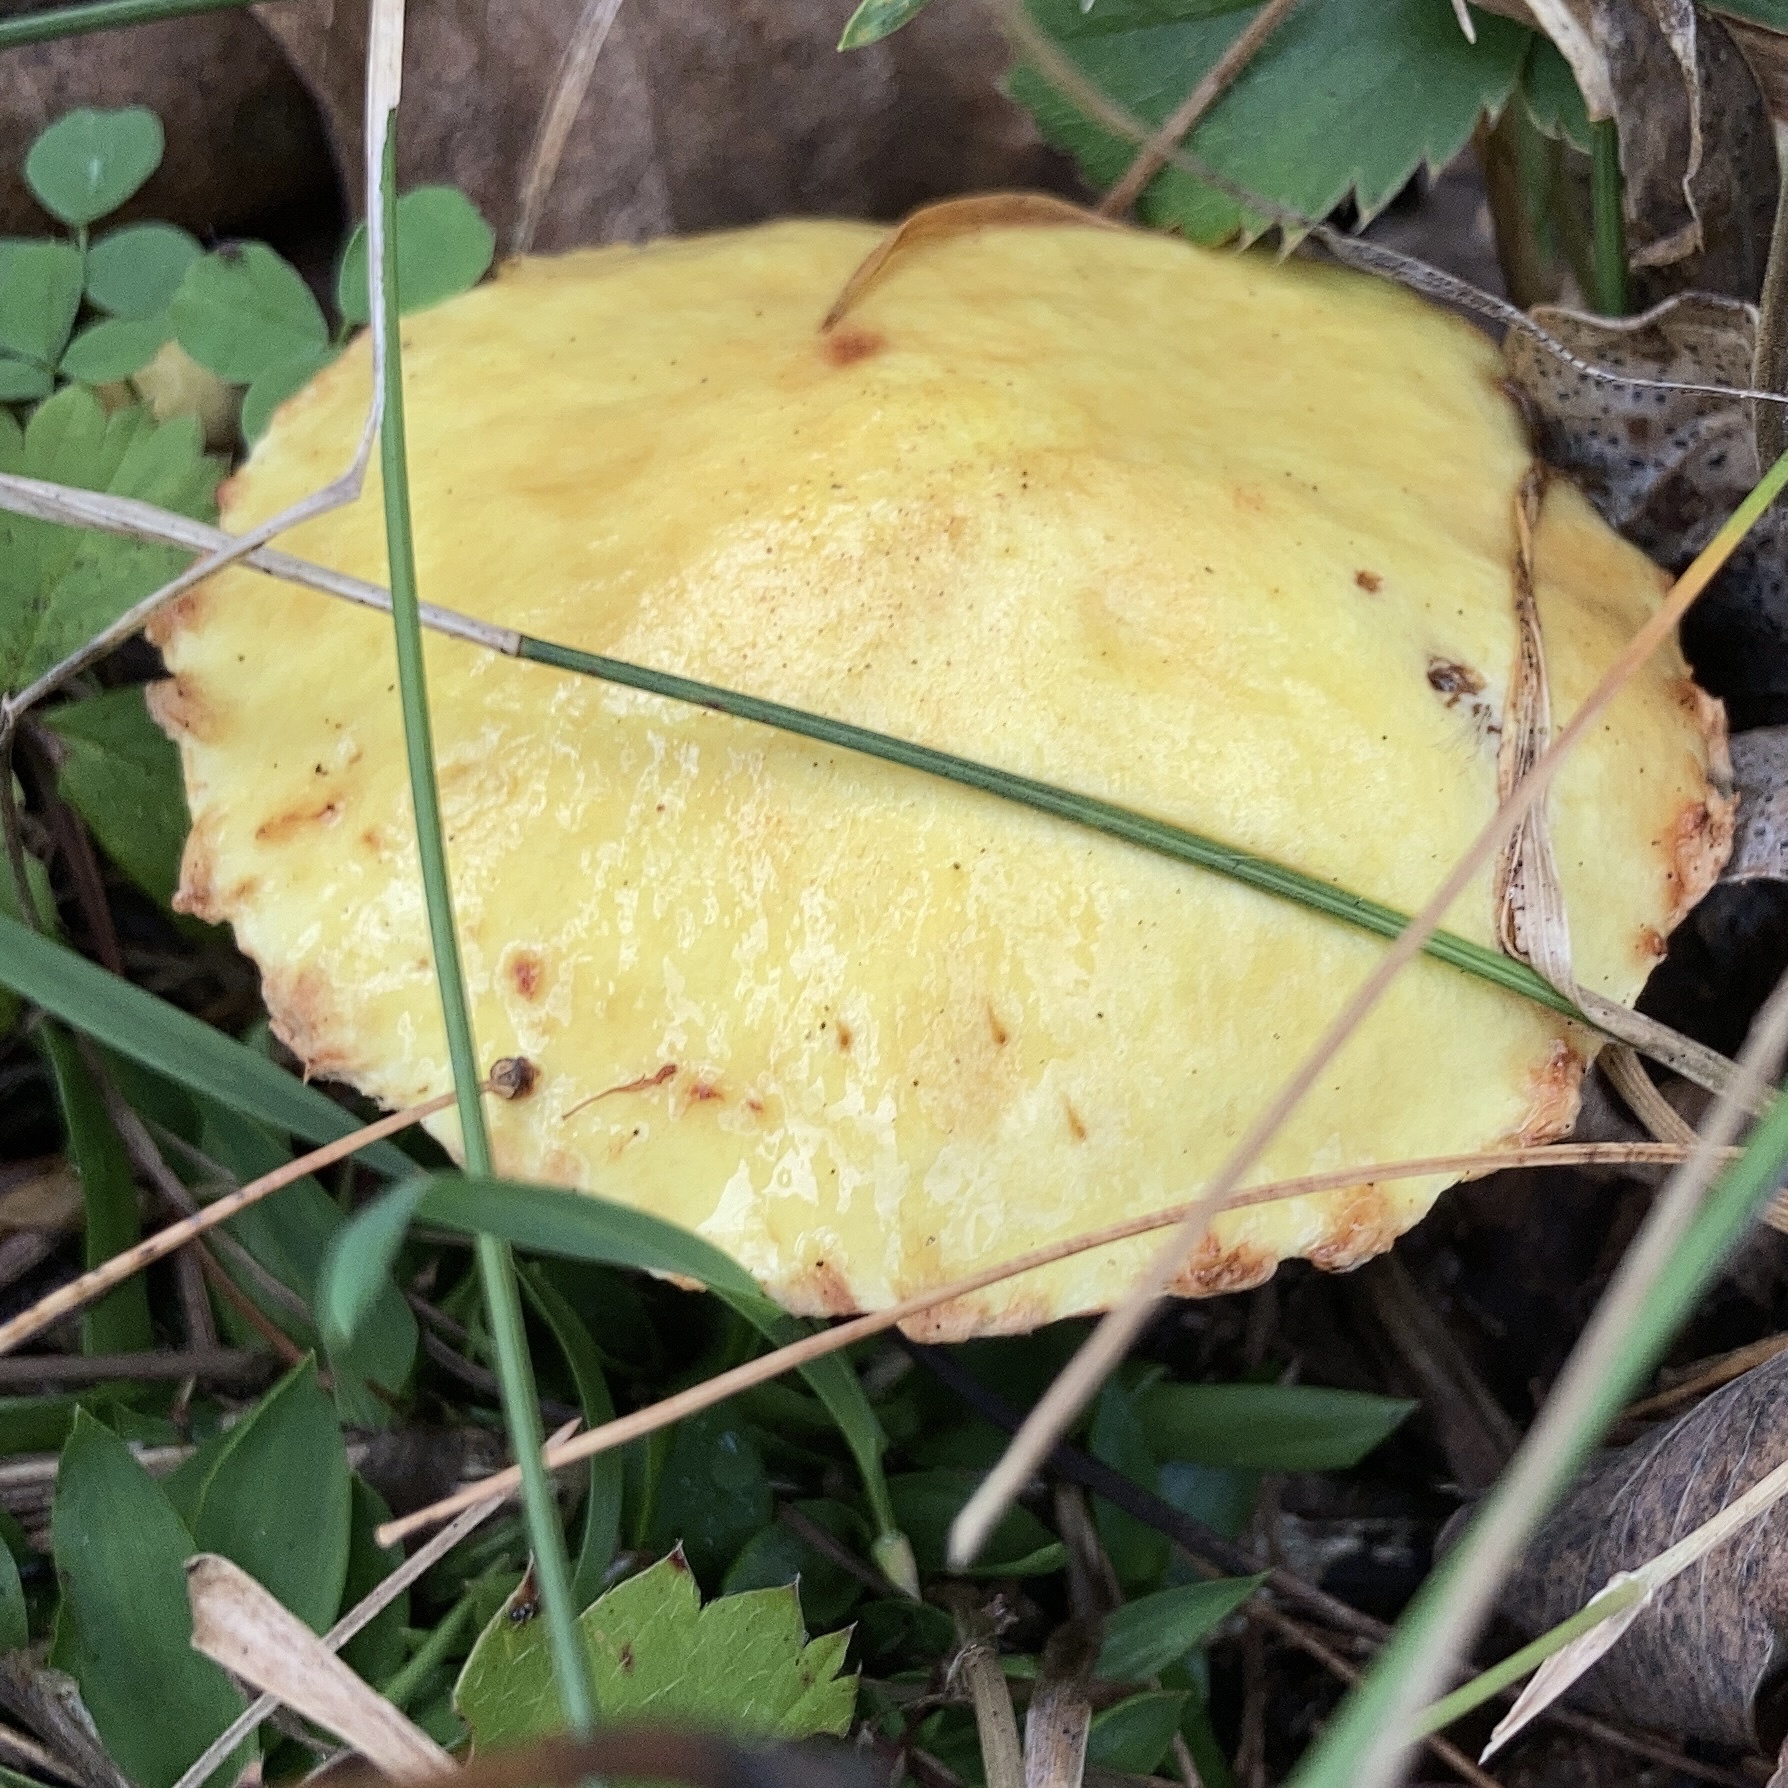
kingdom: Fungi
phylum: Basidiomycota
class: Agaricomycetes
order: Boletales
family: Suillaceae
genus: Suillus
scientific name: Suillus americanus
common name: Chicken fat mushroom
